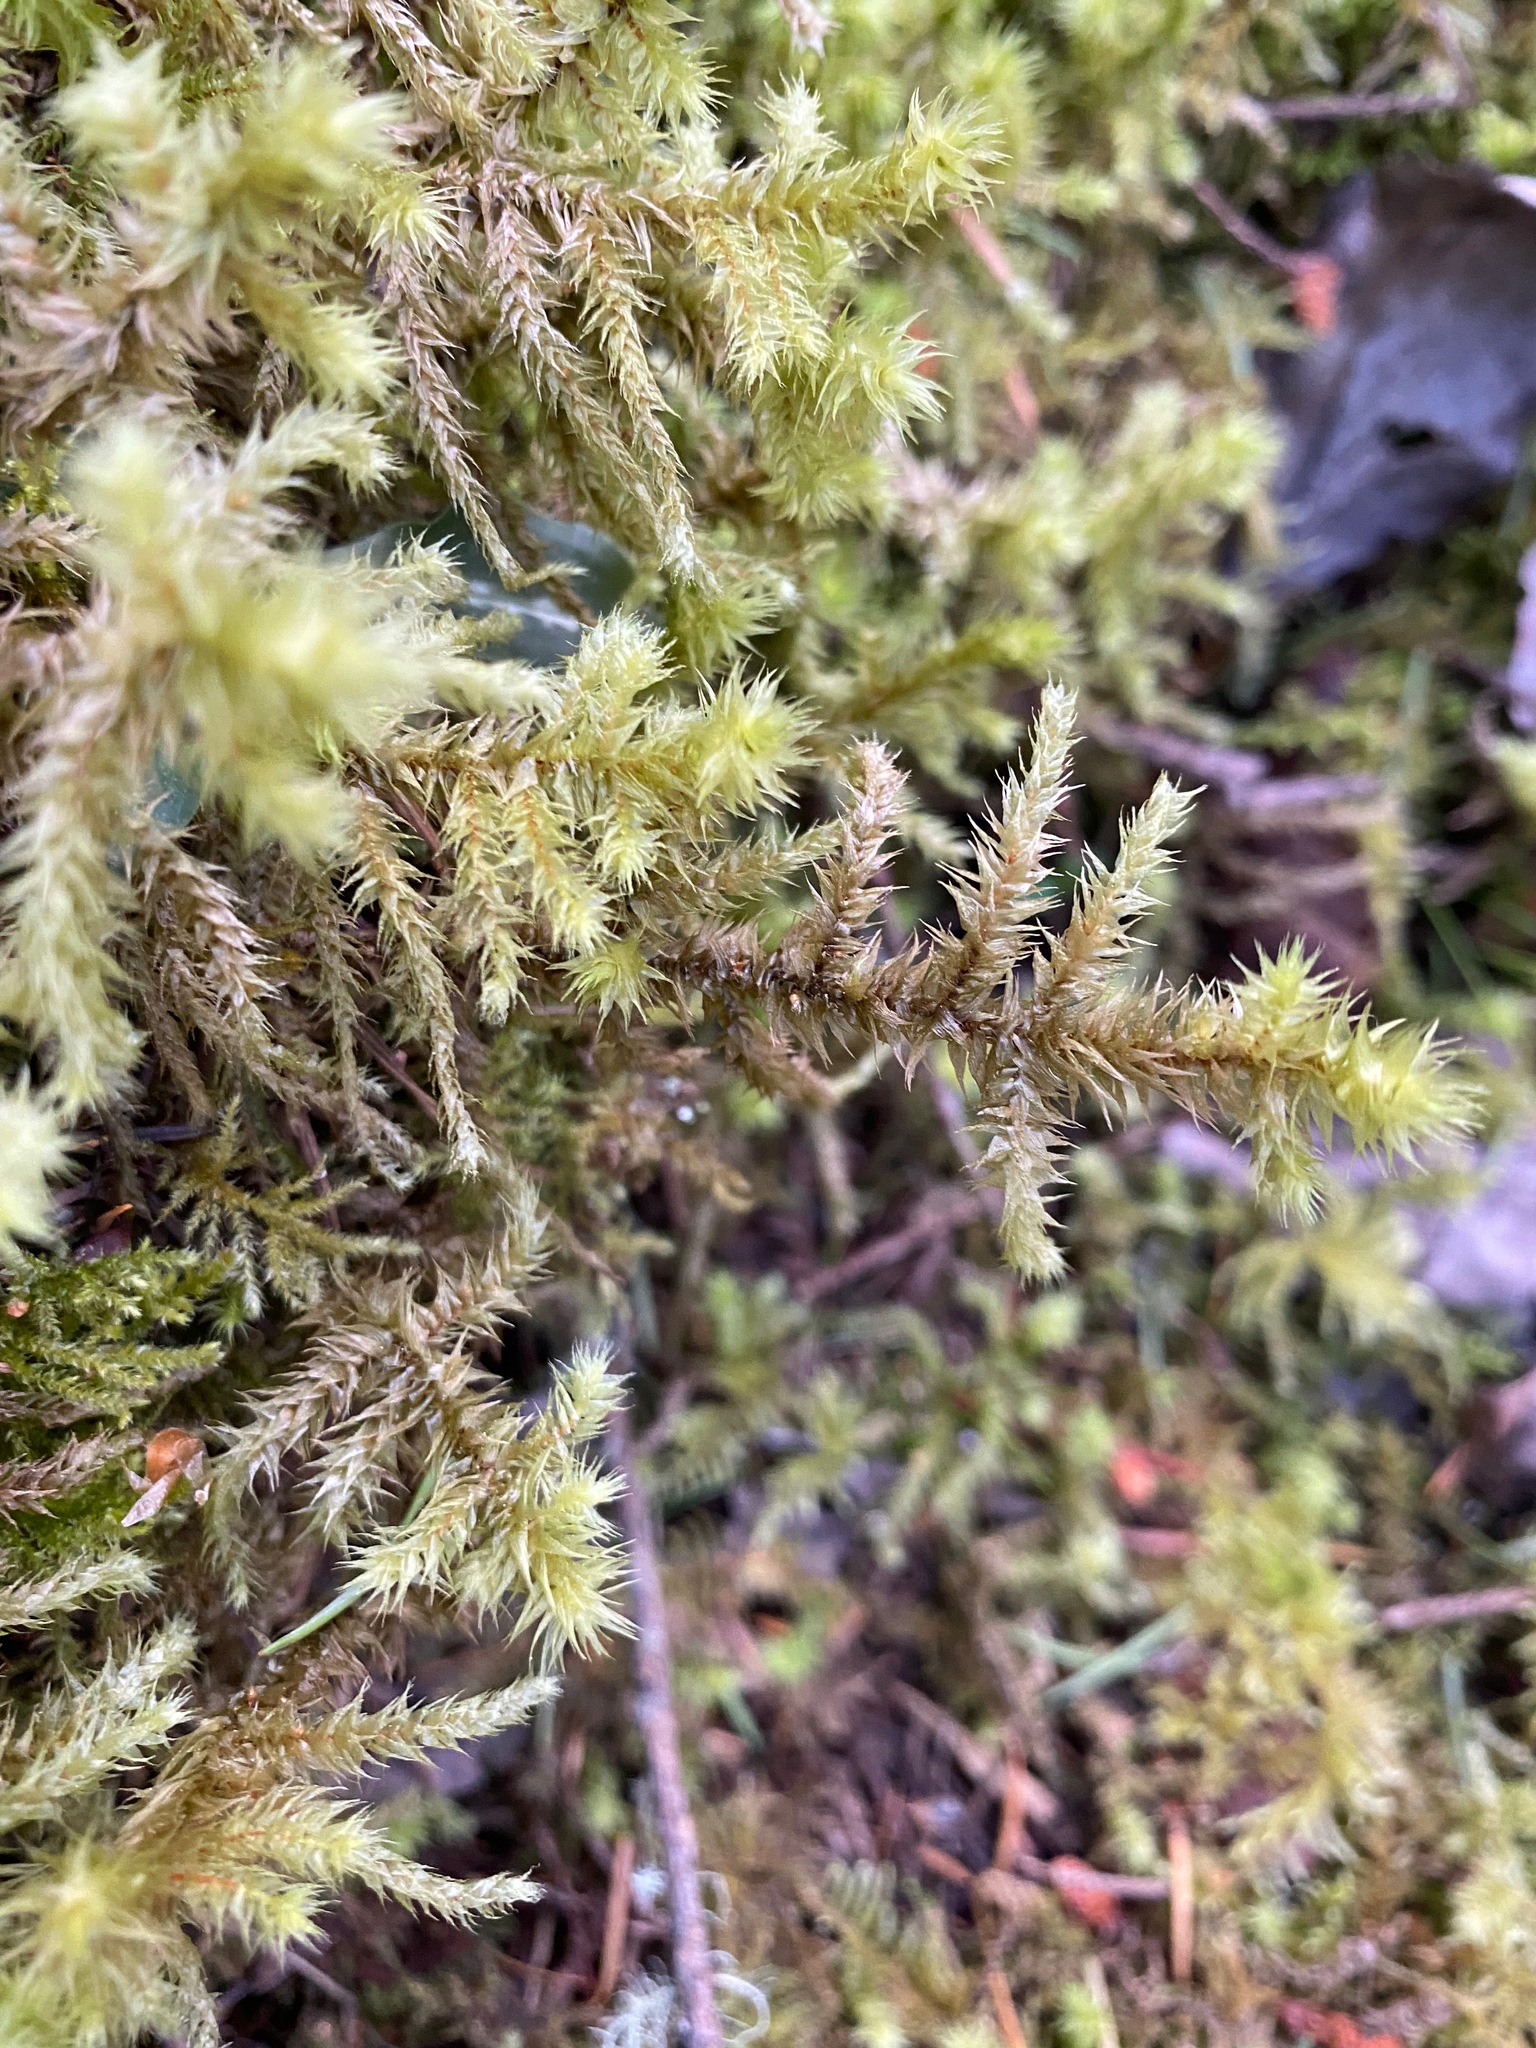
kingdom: Plantae
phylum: Bryophyta
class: Bryopsida
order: Hypnales
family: Hylocomiaceae
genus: Hylocomiadelphus
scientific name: Hylocomiadelphus triquetrus
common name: Rough goose neck moss
